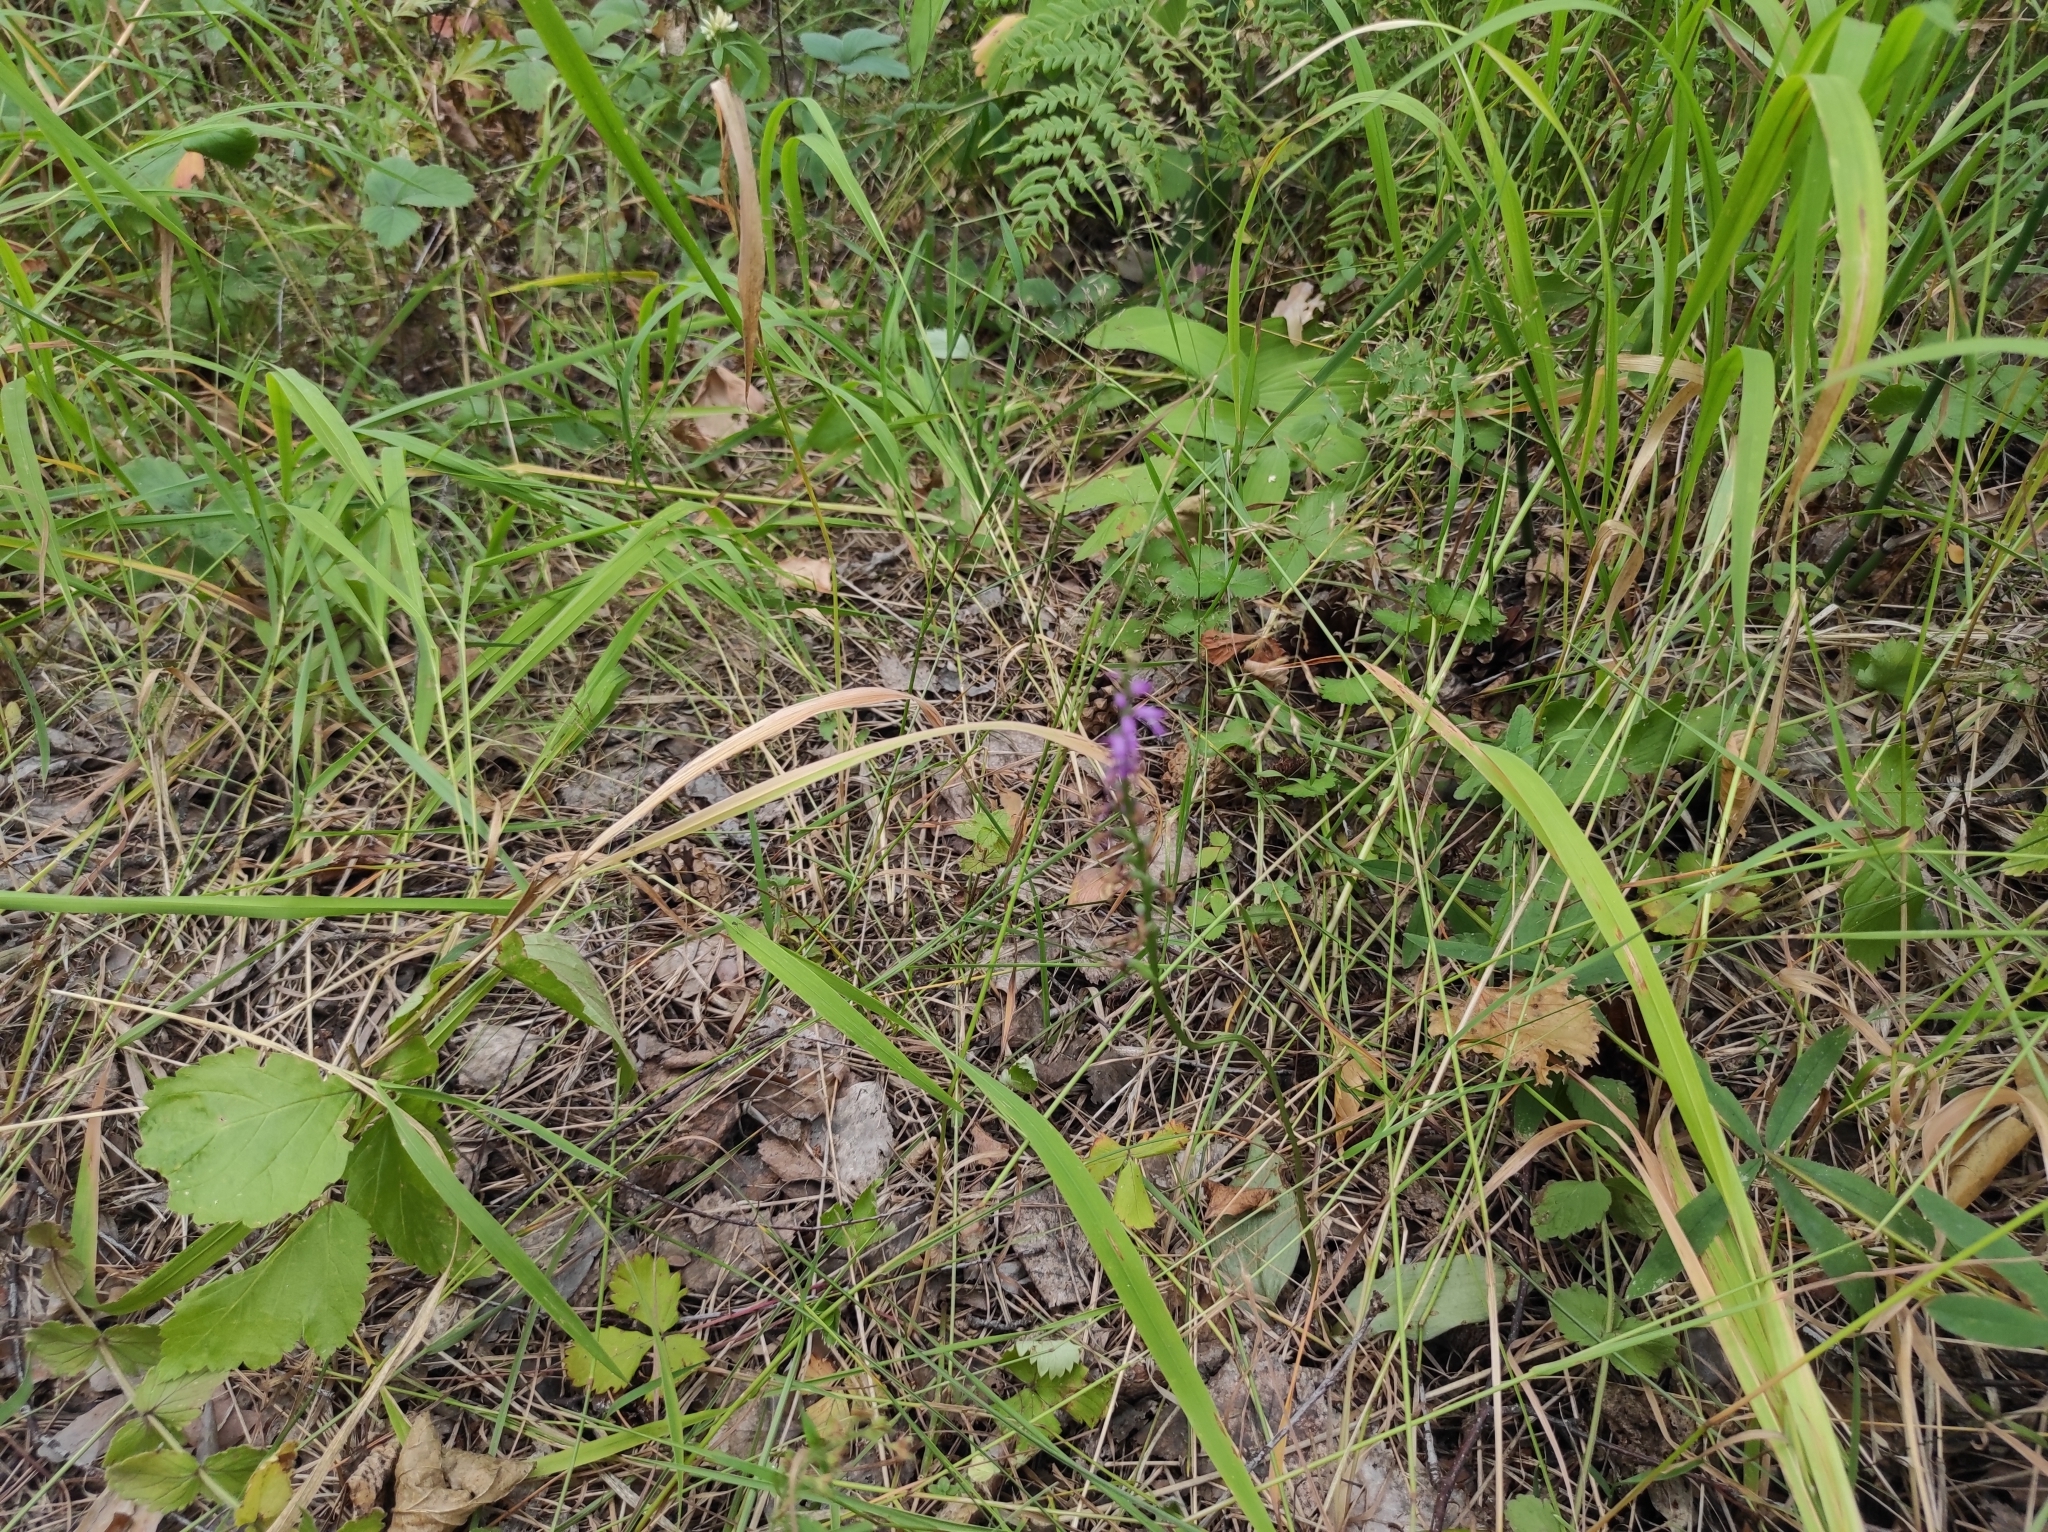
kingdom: Plantae
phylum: Tracheophyta
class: Liliopsida
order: Asparagales
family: Orchidaceae
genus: Hemipilia
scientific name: Hemipilia cucullata
